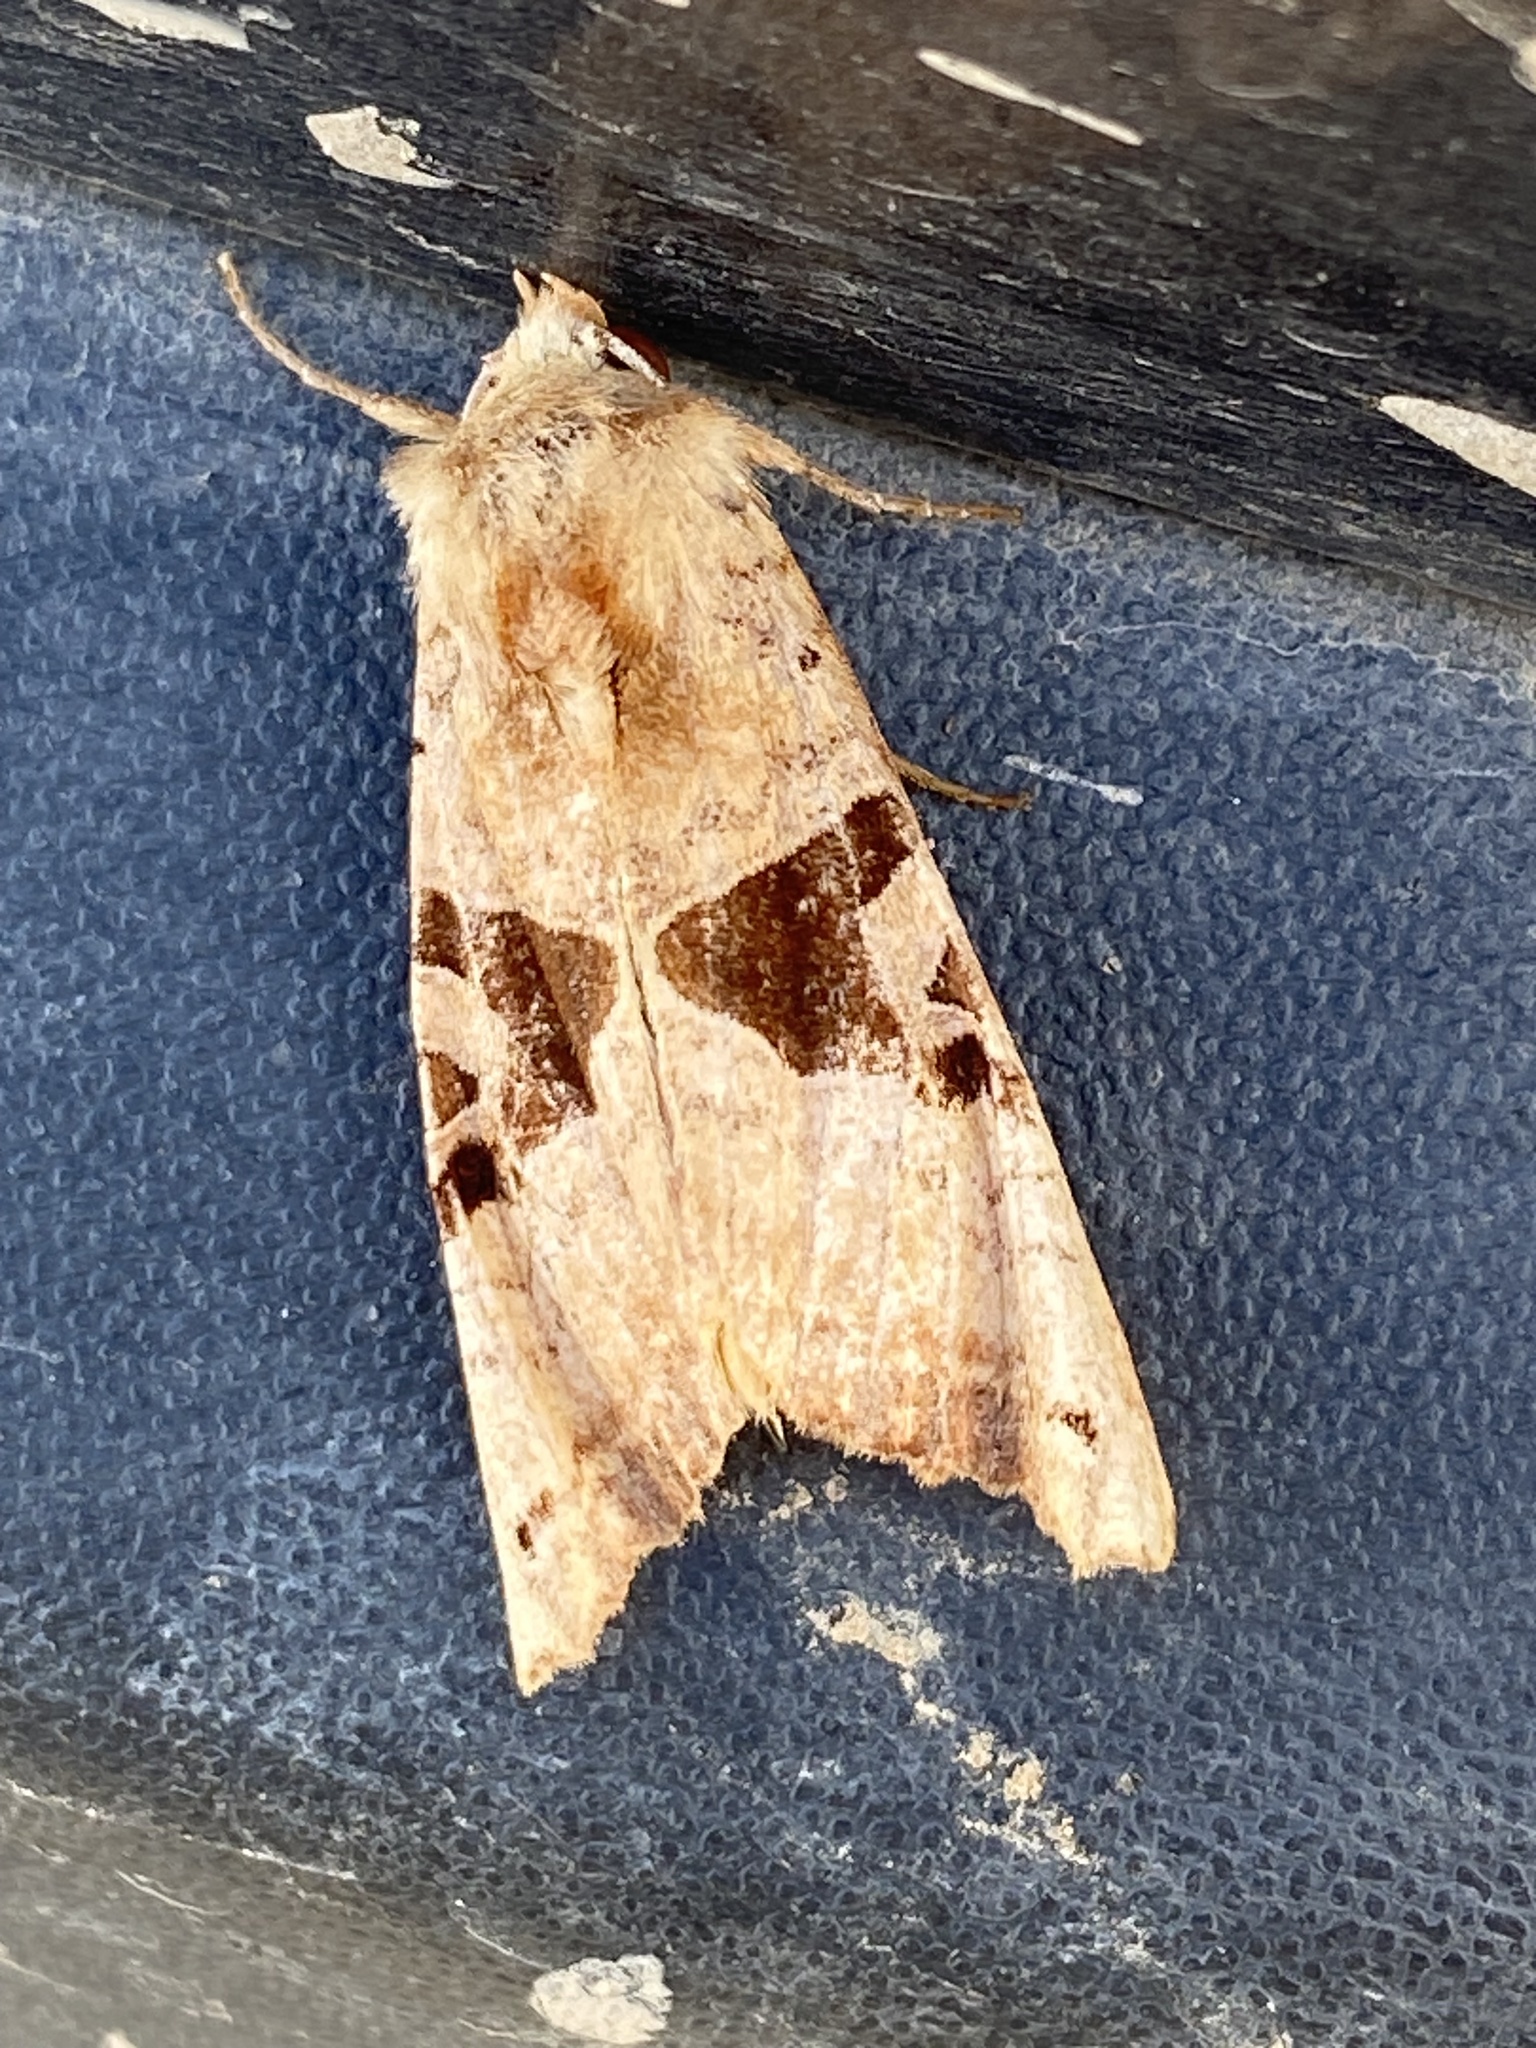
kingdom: Animalia
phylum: Arthropoda
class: Insecta
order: Lepidoptera
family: Noctuidae
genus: Phlogophora
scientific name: Phlogophora periculosa
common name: Brown angle shades
